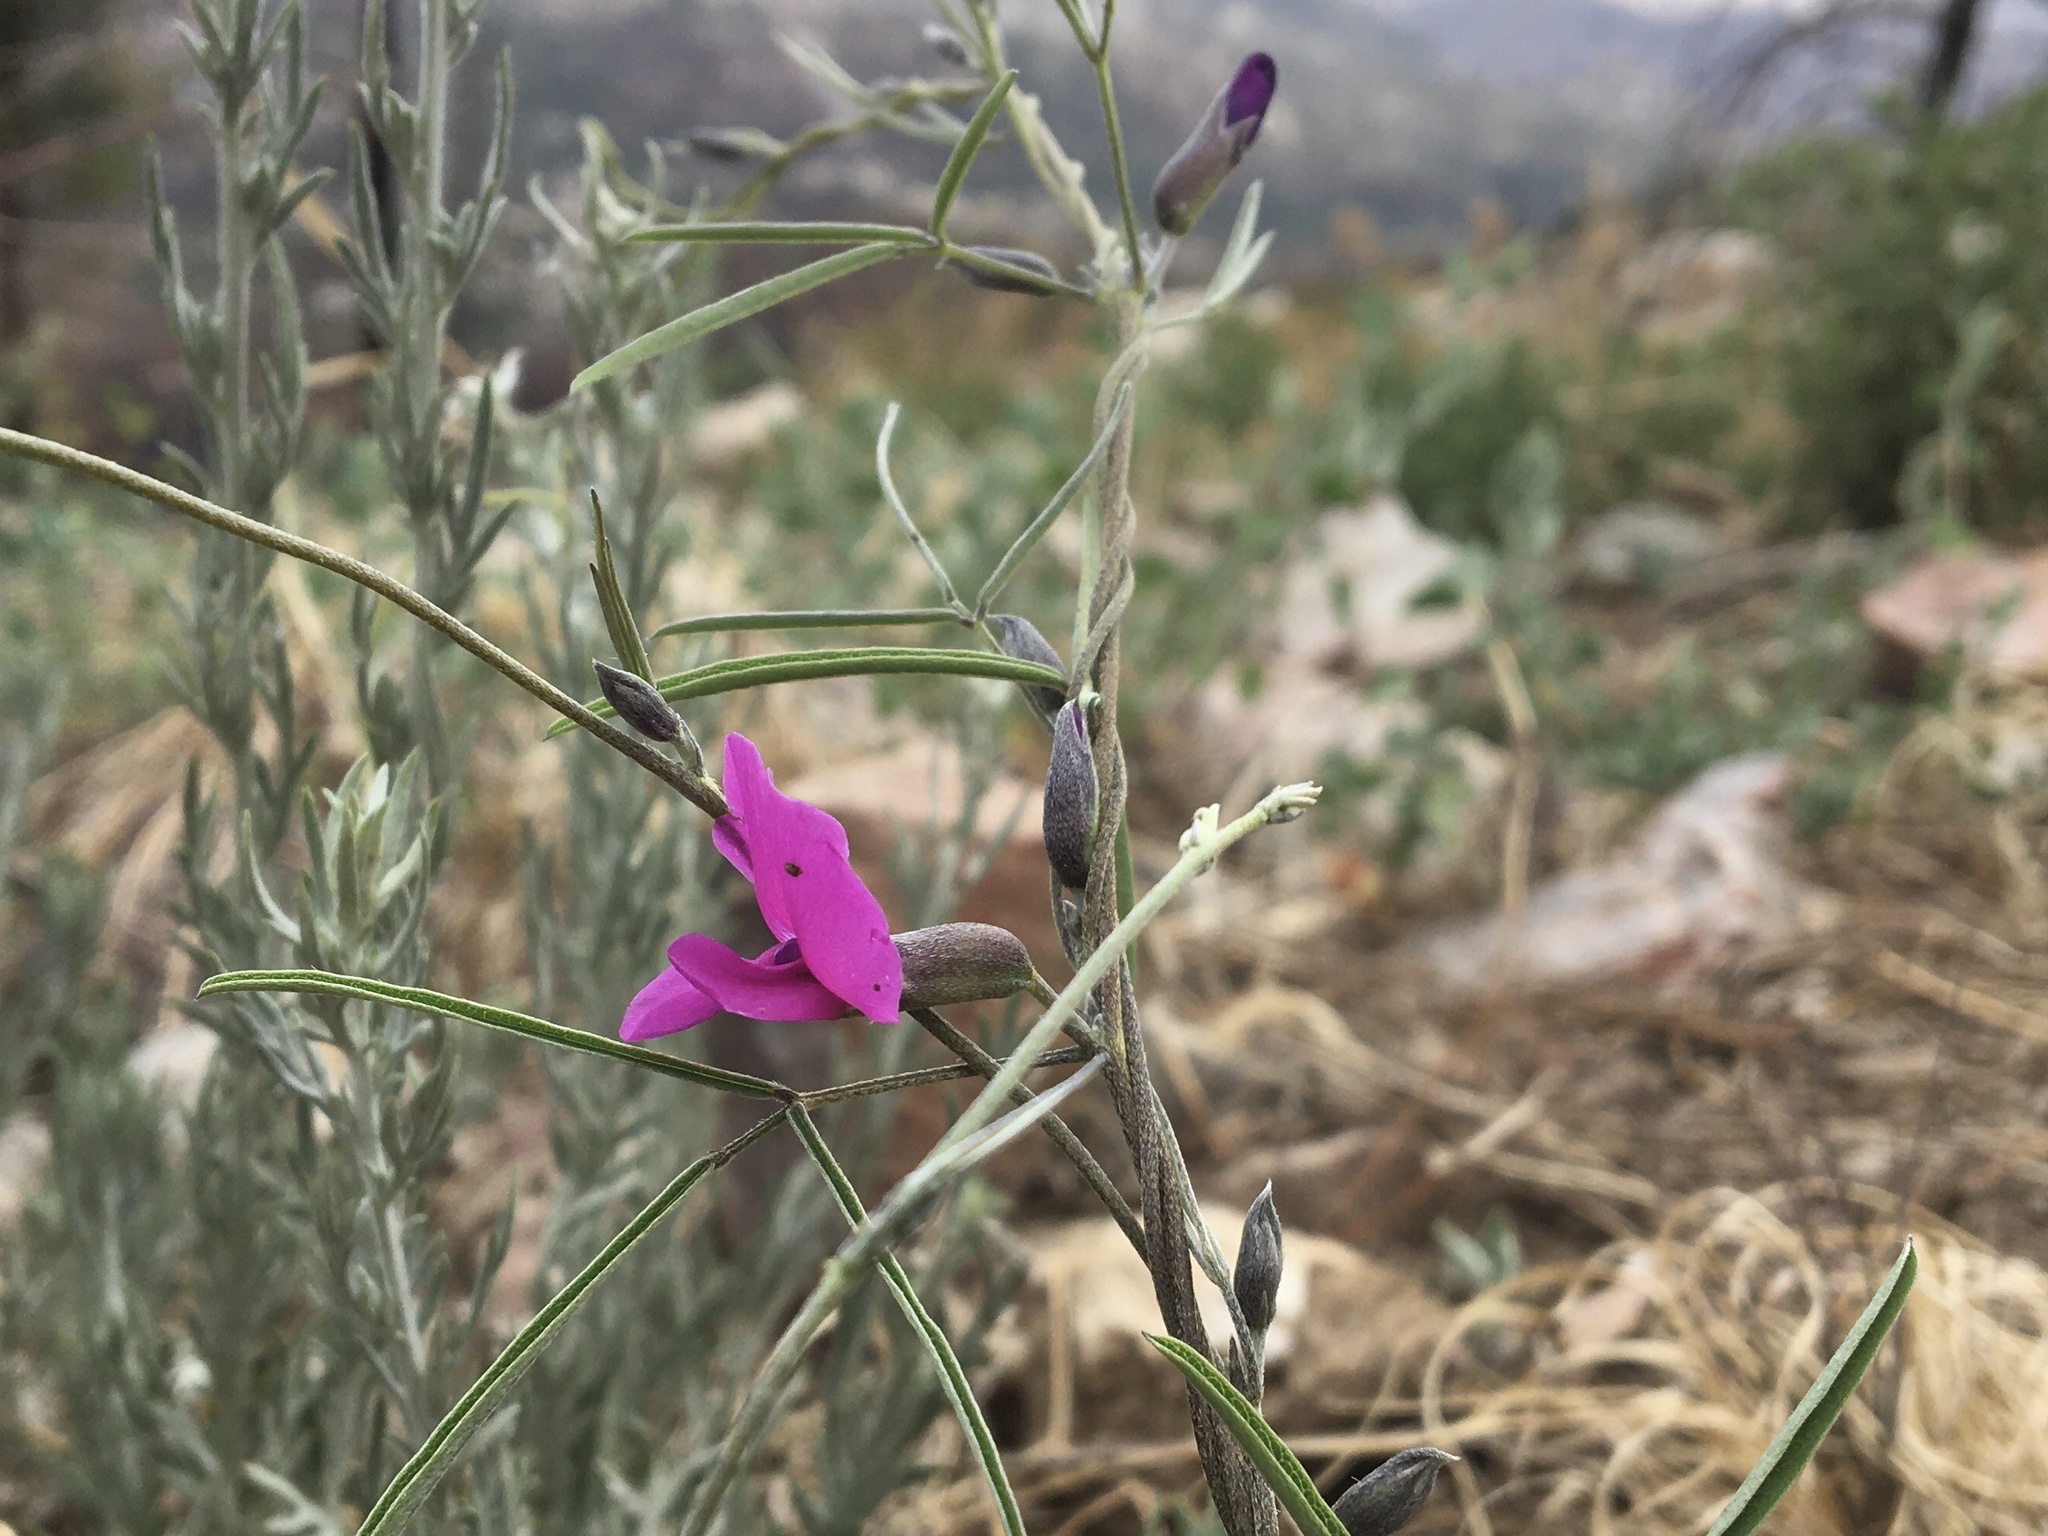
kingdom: Plantae
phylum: Tracheophyta
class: Magnoliopsida
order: Fabales
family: Fabaceae
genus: Cologania
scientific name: Cologania angustifolia
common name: Longleaf cologania
